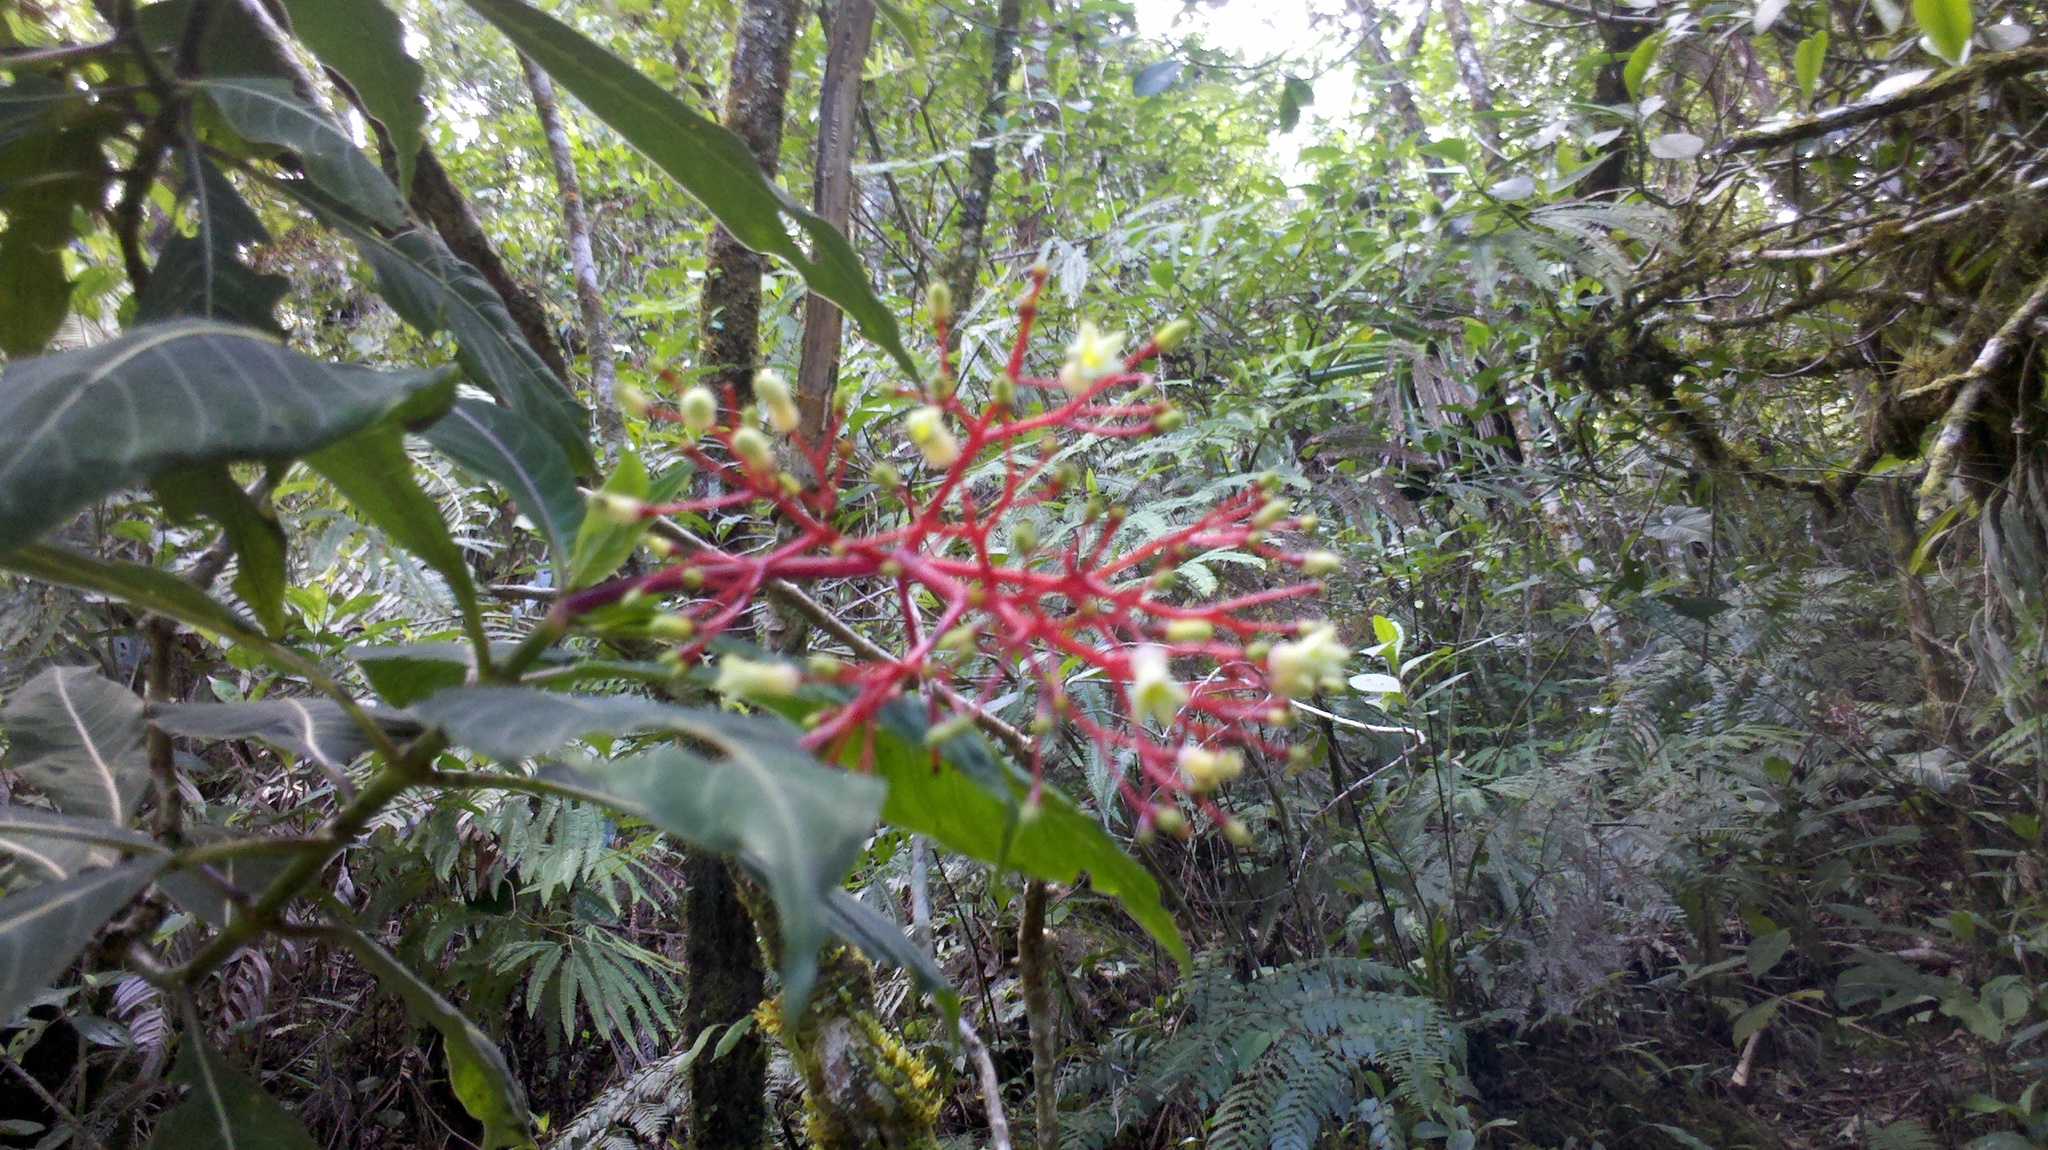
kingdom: Plantae
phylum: Tracheophyta
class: Magnoliopsida
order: Gentianales
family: Rubiaceae
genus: Palicourea
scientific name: Palicourea macrantha
